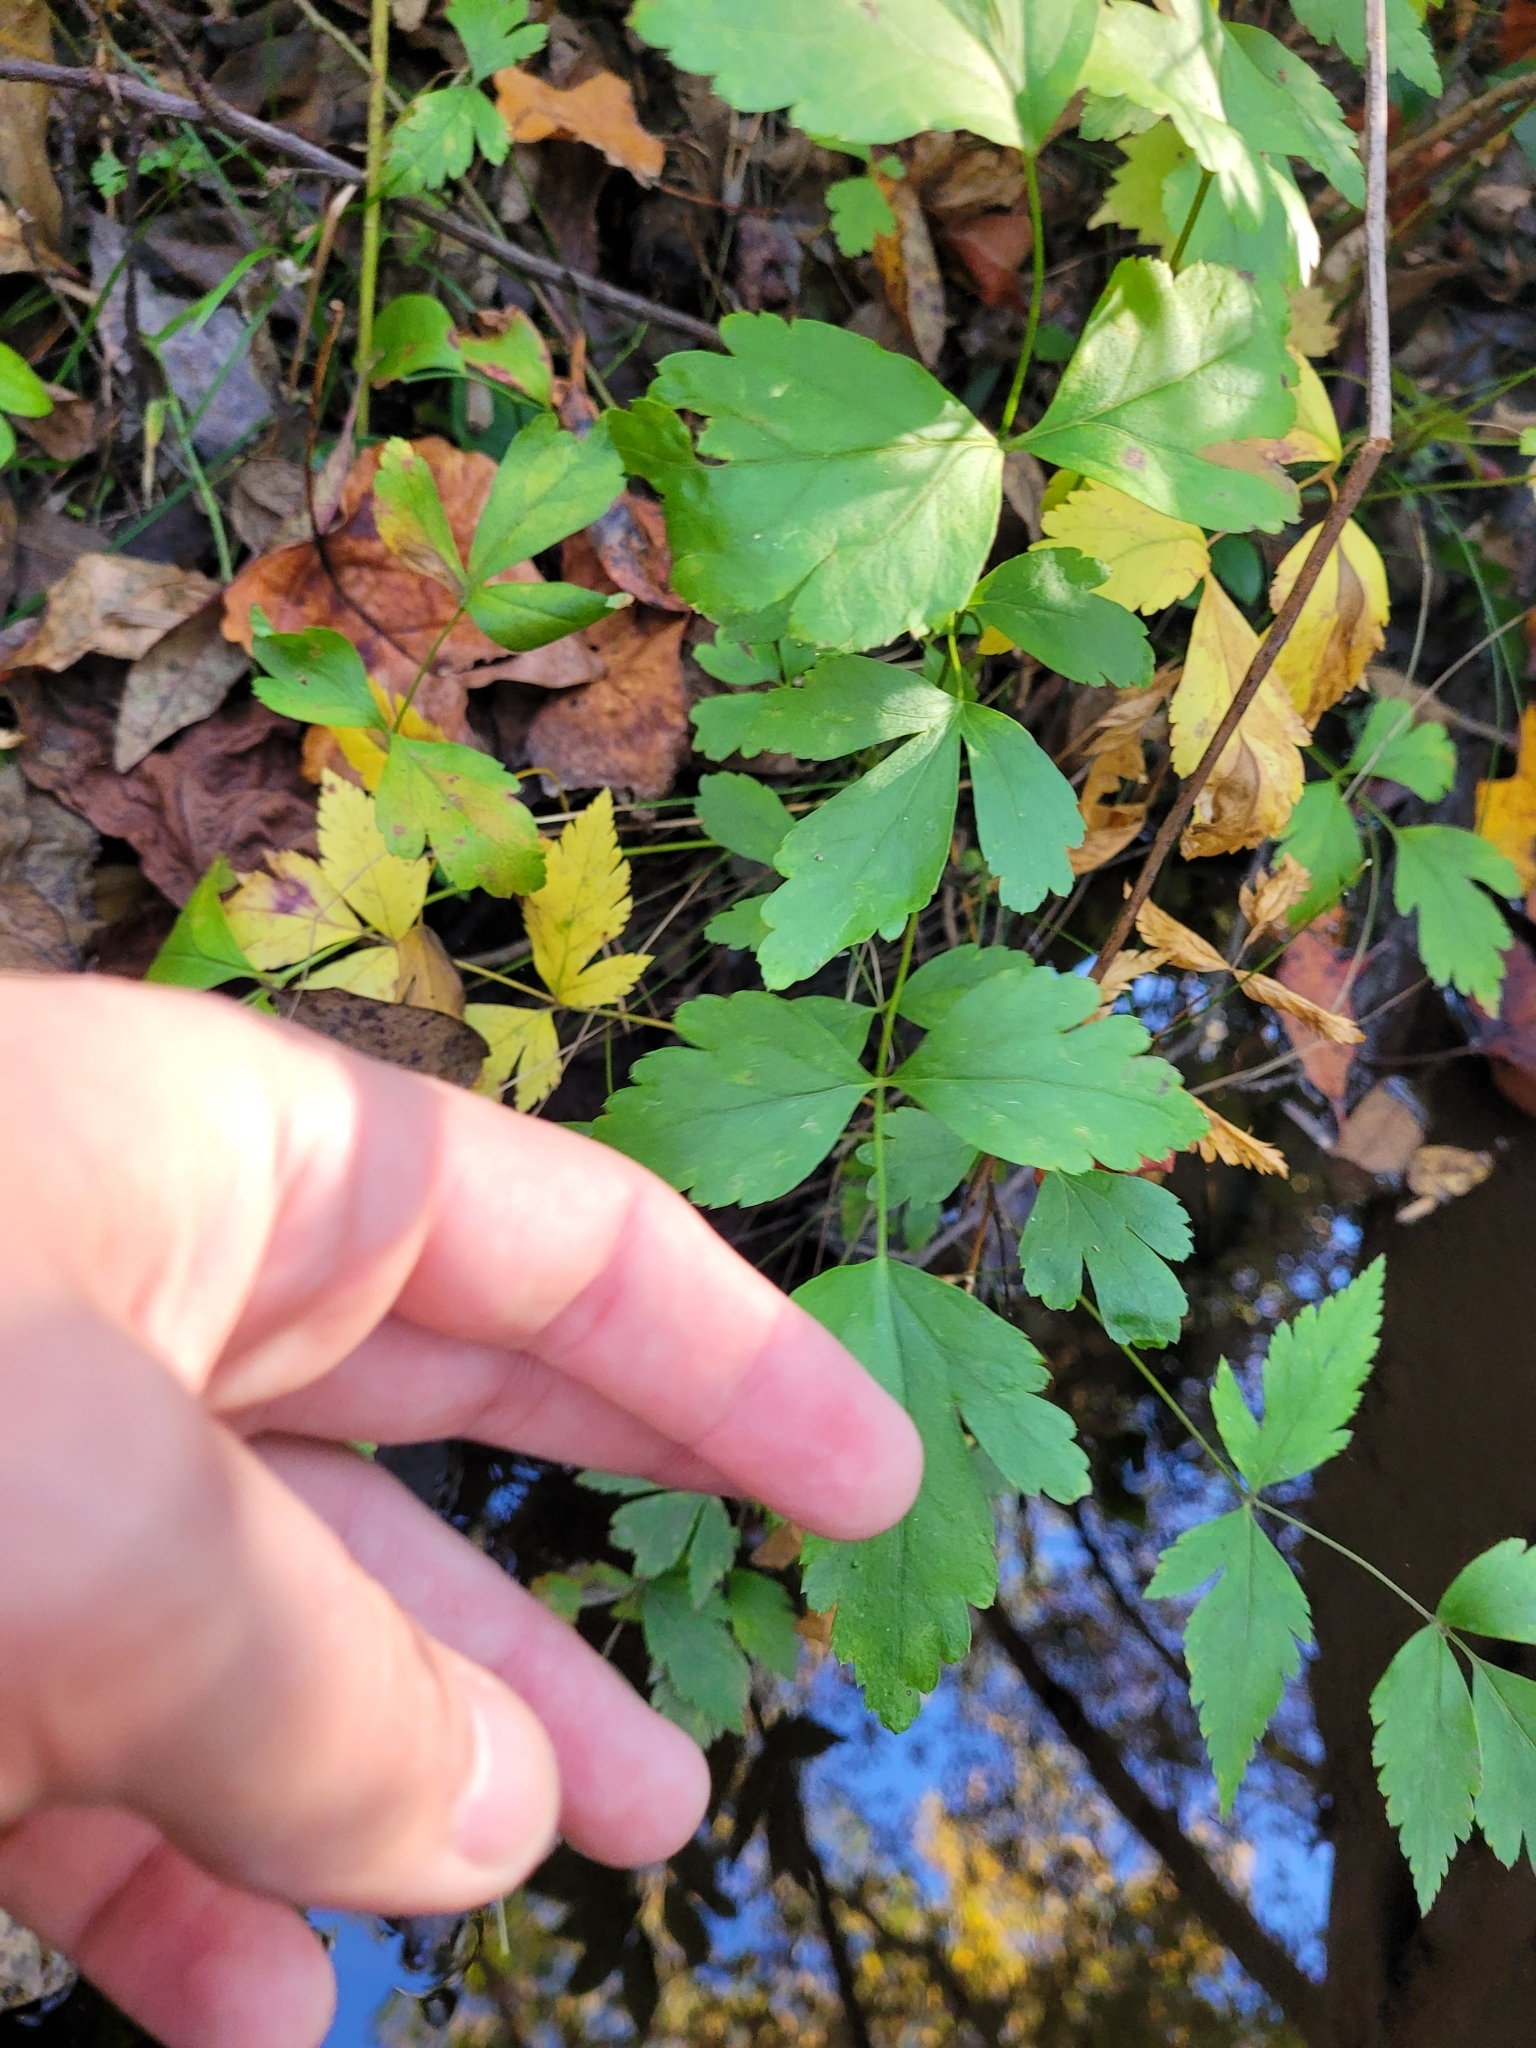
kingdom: Plantae
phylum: Tracheophyta
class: Magnoliopsida
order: Ranunculales
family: Ranunculaceae
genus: Xanthorhiza
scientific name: Xanthorhiza simplicissima
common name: Yellowroot
